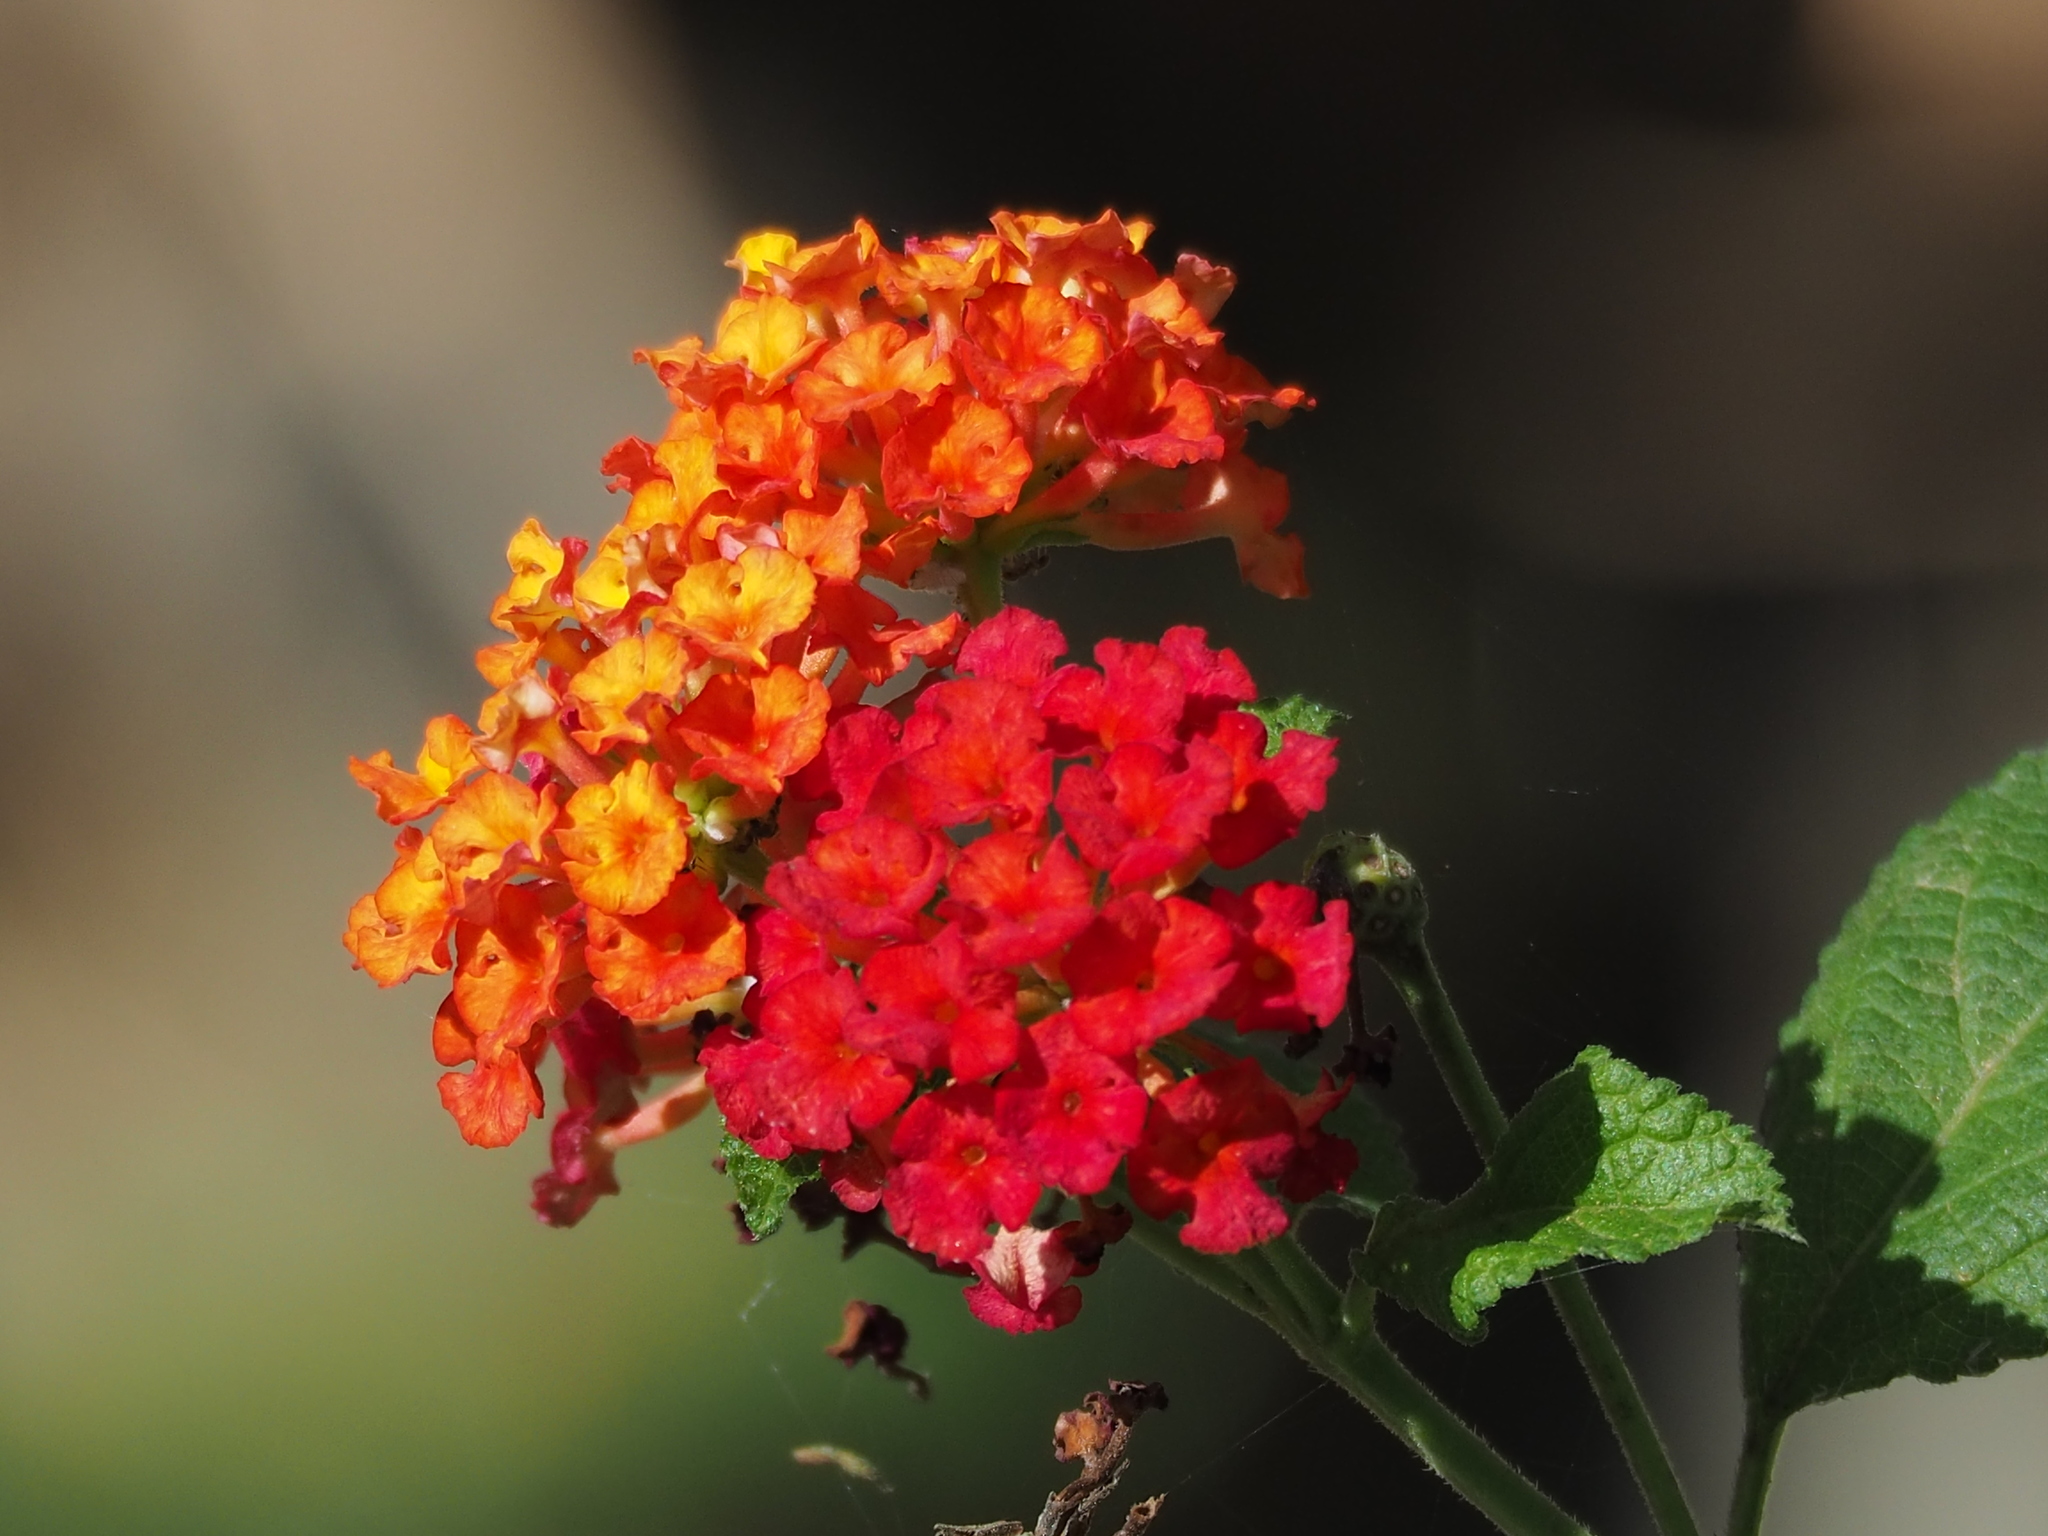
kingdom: Plantae
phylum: Tracheophyta
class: Magnoliopsida
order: Lamiales
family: Verbenaceae
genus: Lantana
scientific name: Lantana camara
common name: Lantana
